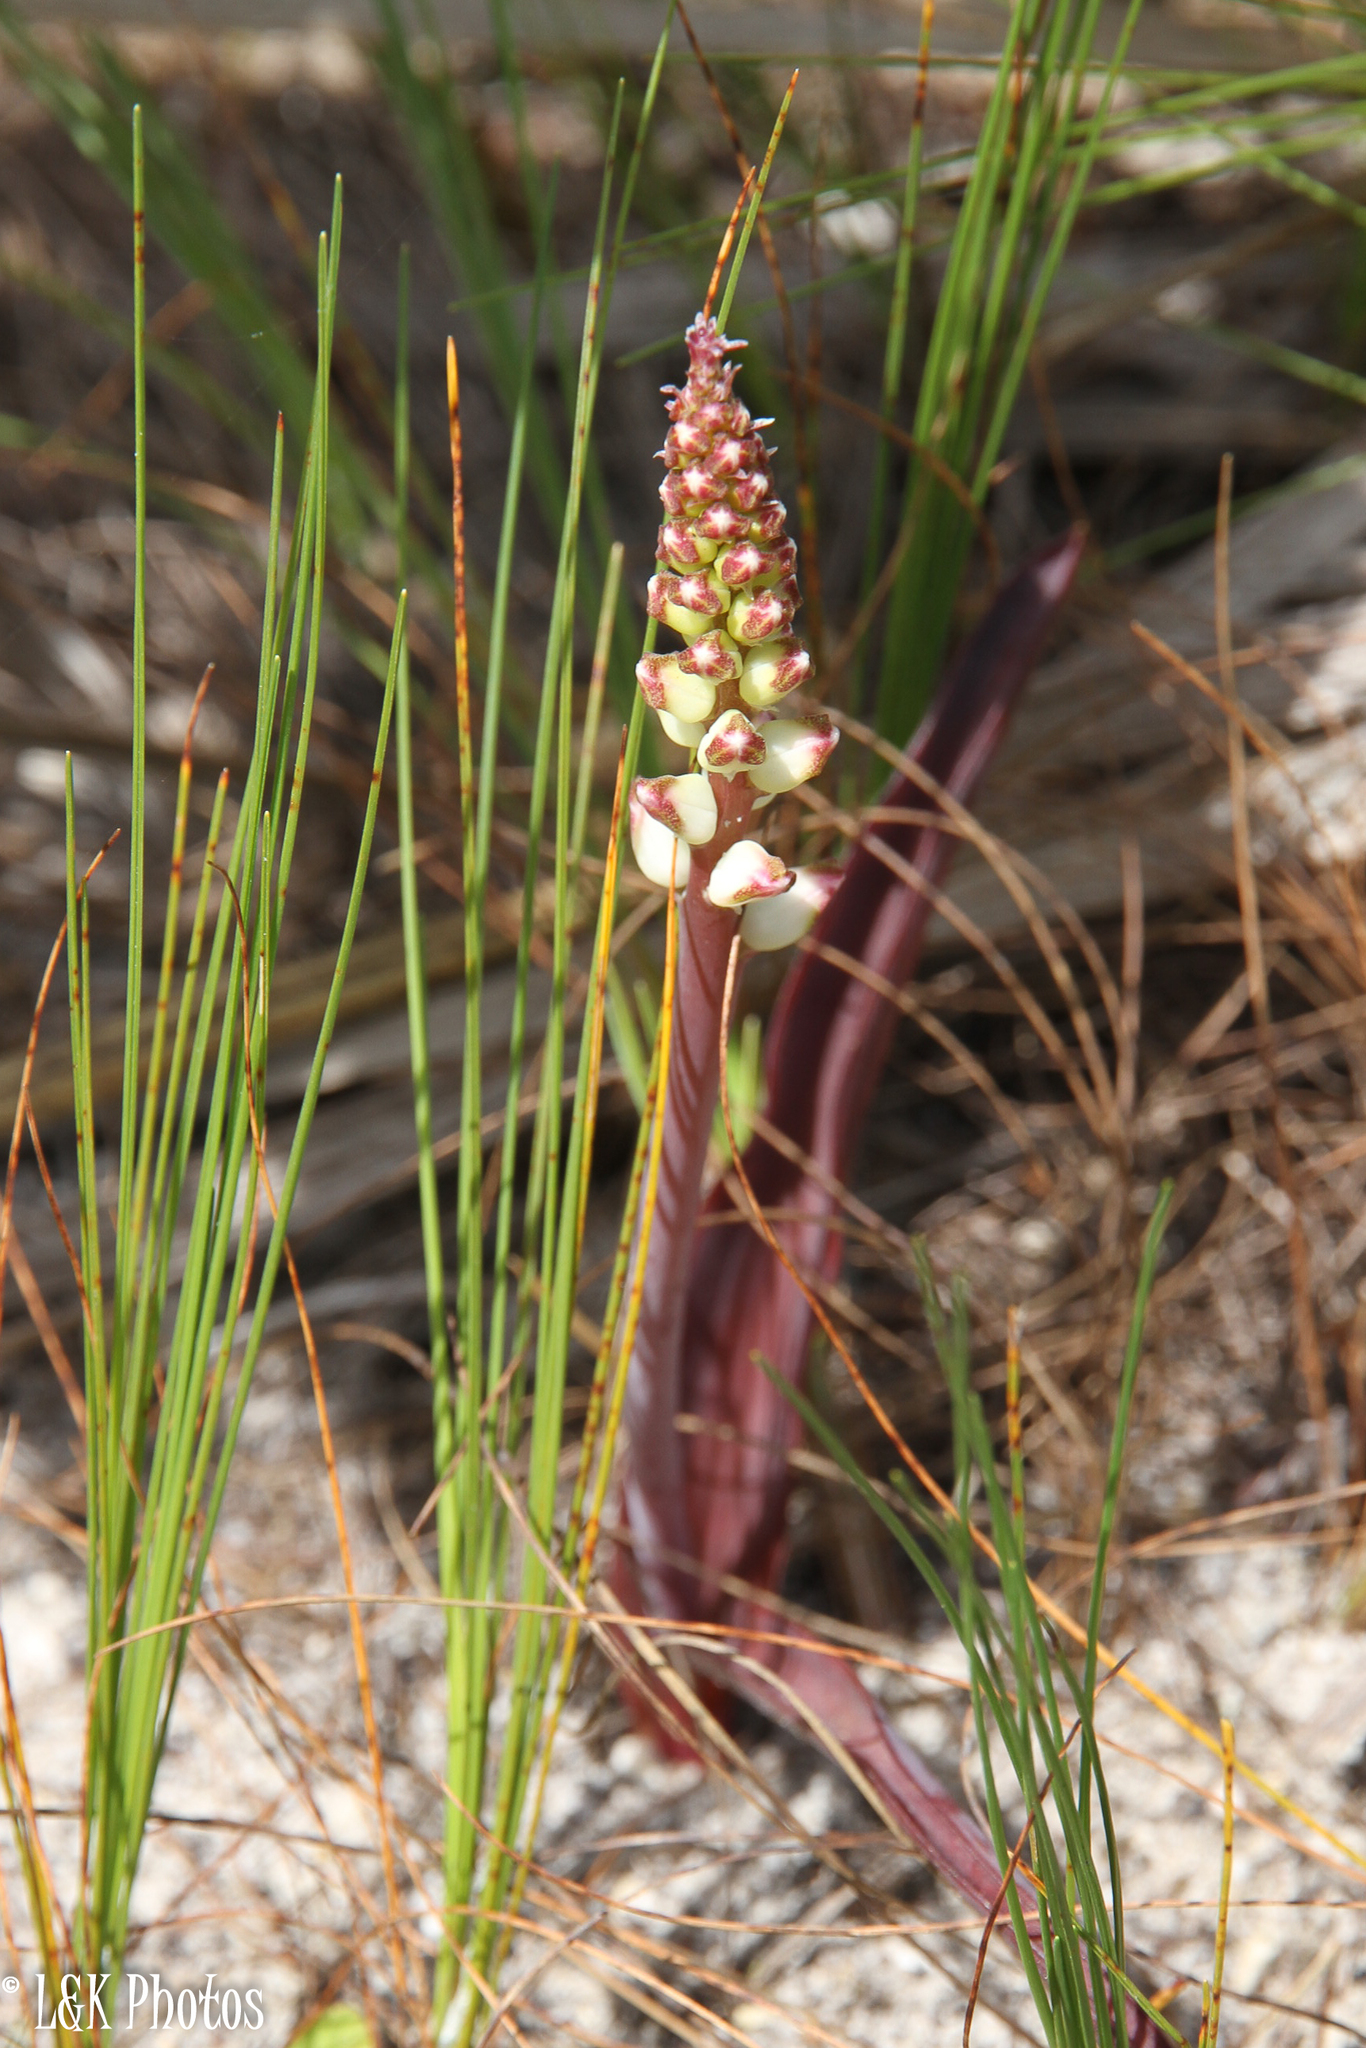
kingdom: Plantae
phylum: Tracheophyta
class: Liliopsida
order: Asparagales
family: Asparagaceae
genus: Lachenalia
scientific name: Lachenalia peersii
